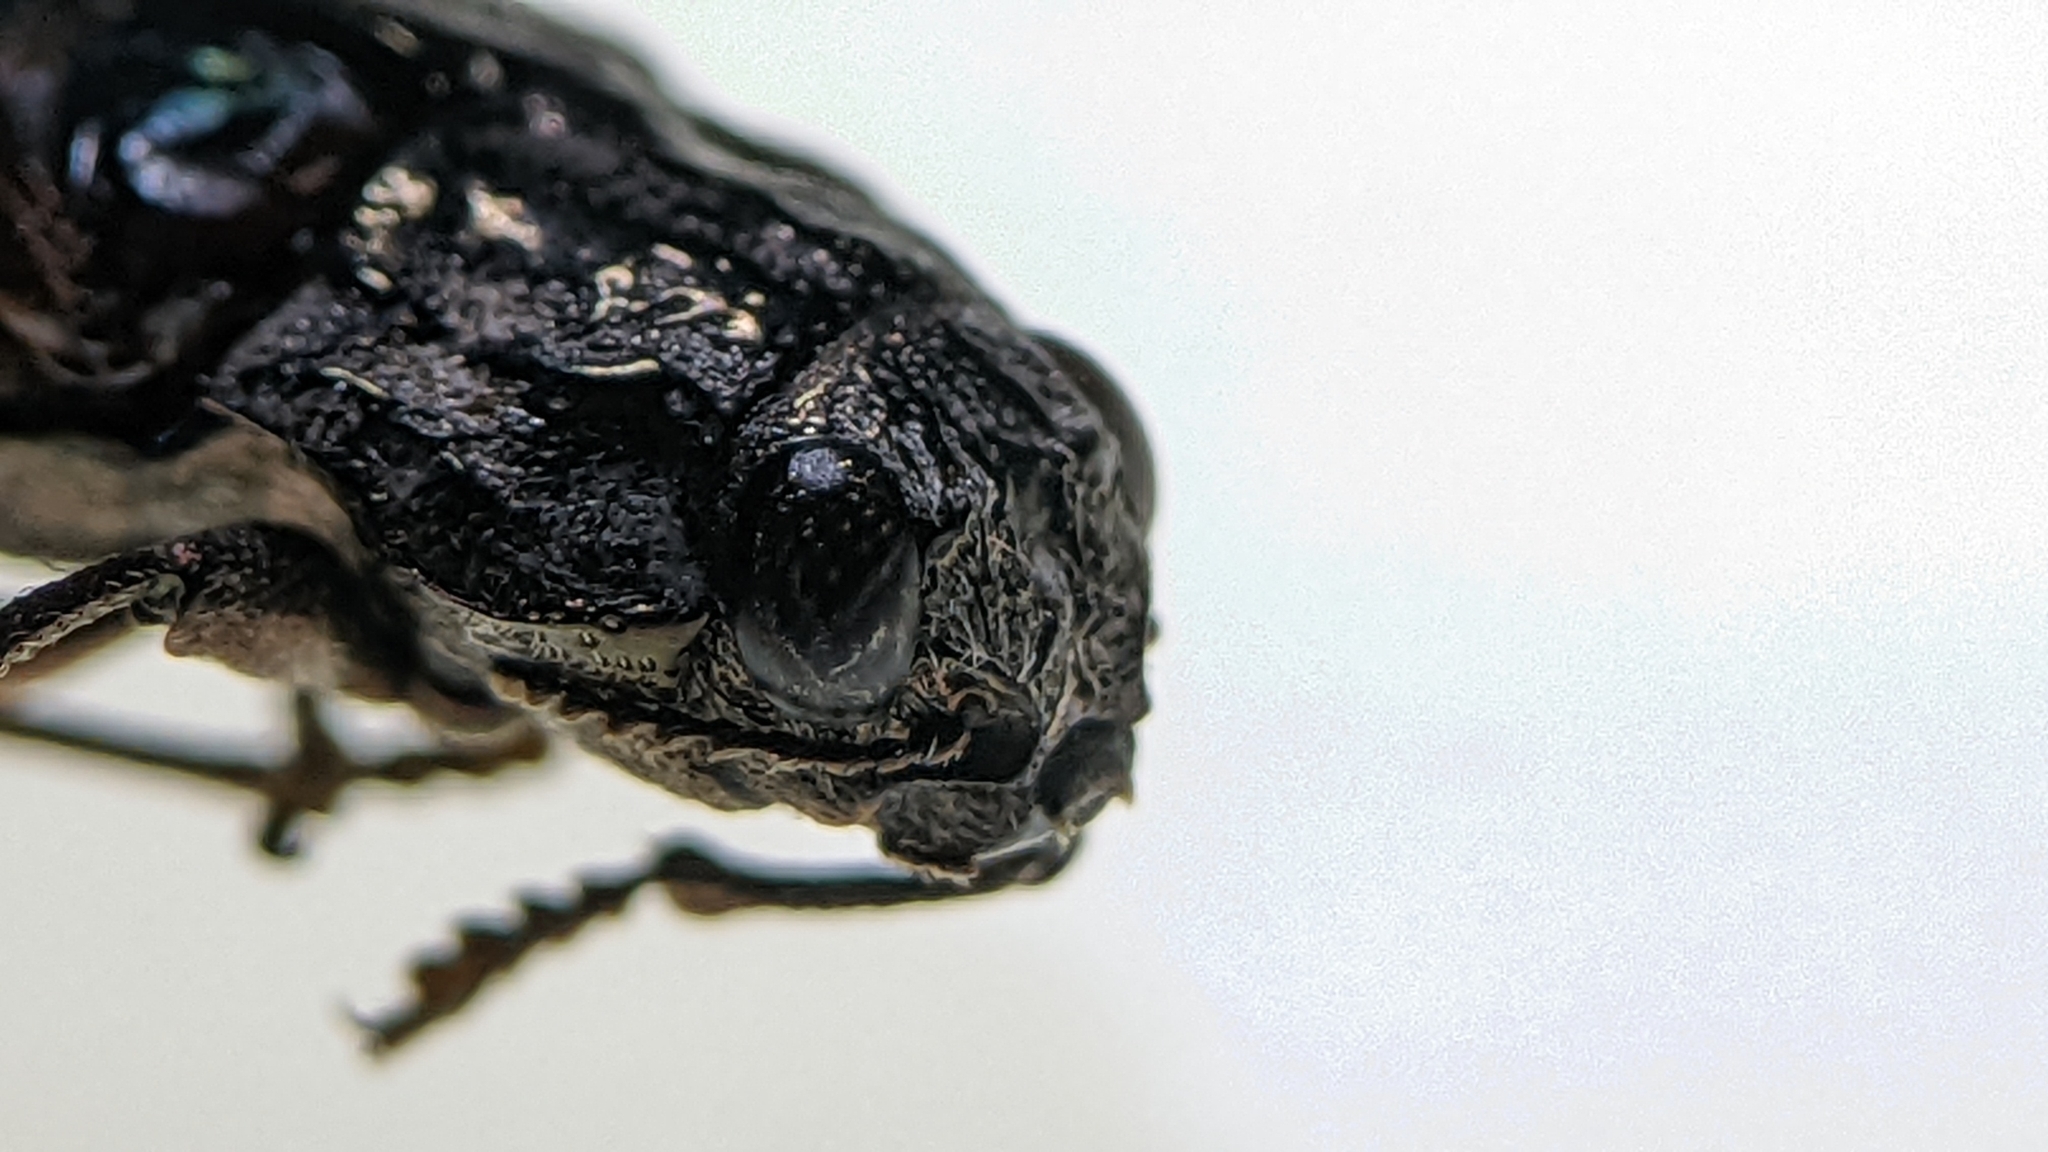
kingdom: Animalia
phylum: Arthropoda
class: Insecta
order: Coleoptera
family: Buprestidae
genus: Dicerca
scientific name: Dicerca spreta
